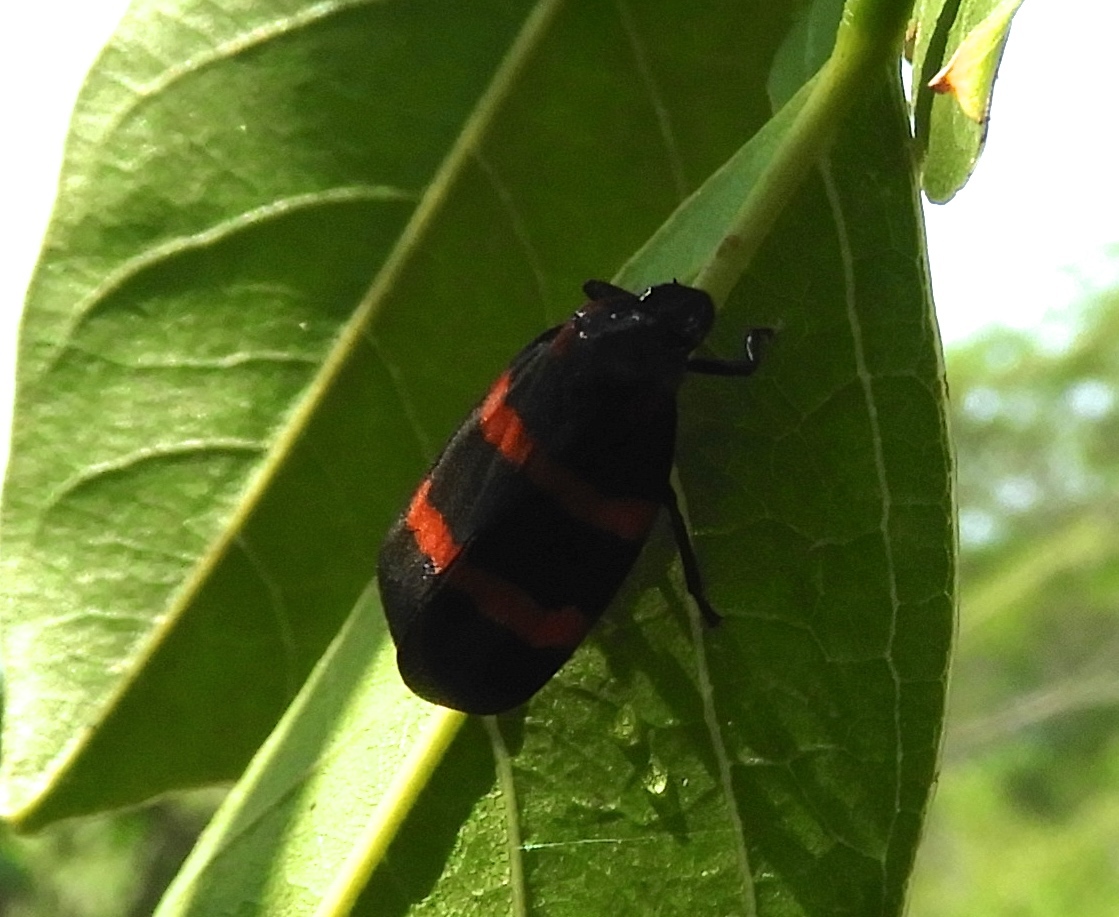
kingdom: Animalia
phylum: Arthropoda
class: Insecta
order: Hemiptera
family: Cercopidae
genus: Huaina
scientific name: Huaina inca
